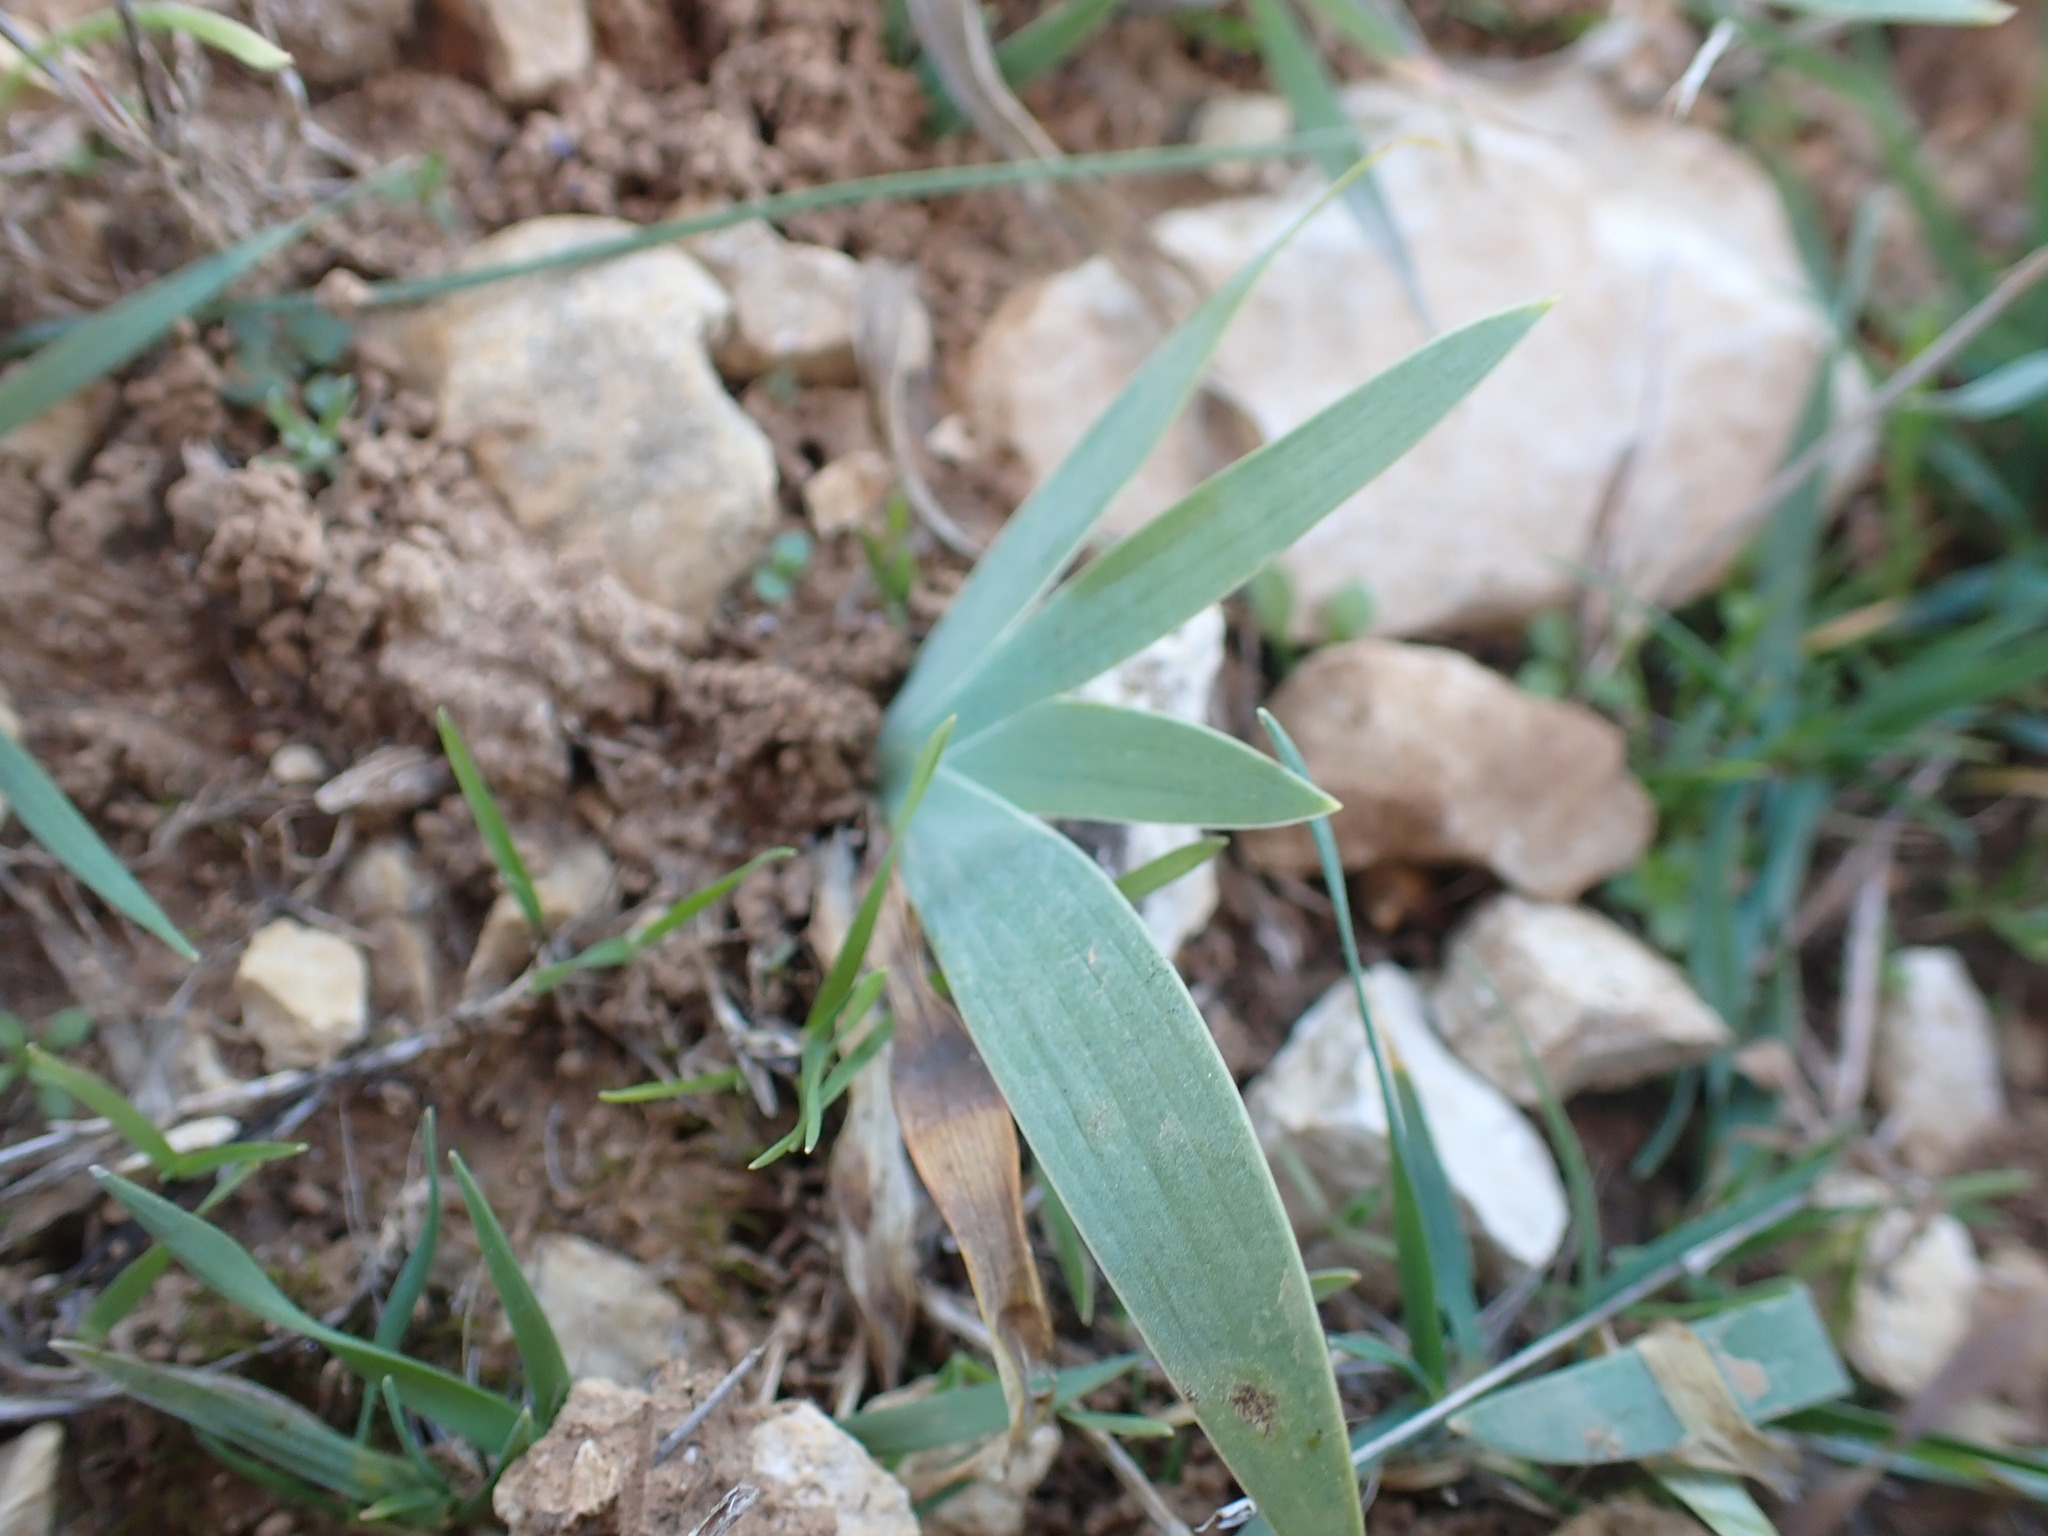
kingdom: Plantae
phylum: Tracheophyta
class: Liliopsida
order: Asparagales
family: Iridaceae
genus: Iris
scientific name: Iris lutescens
